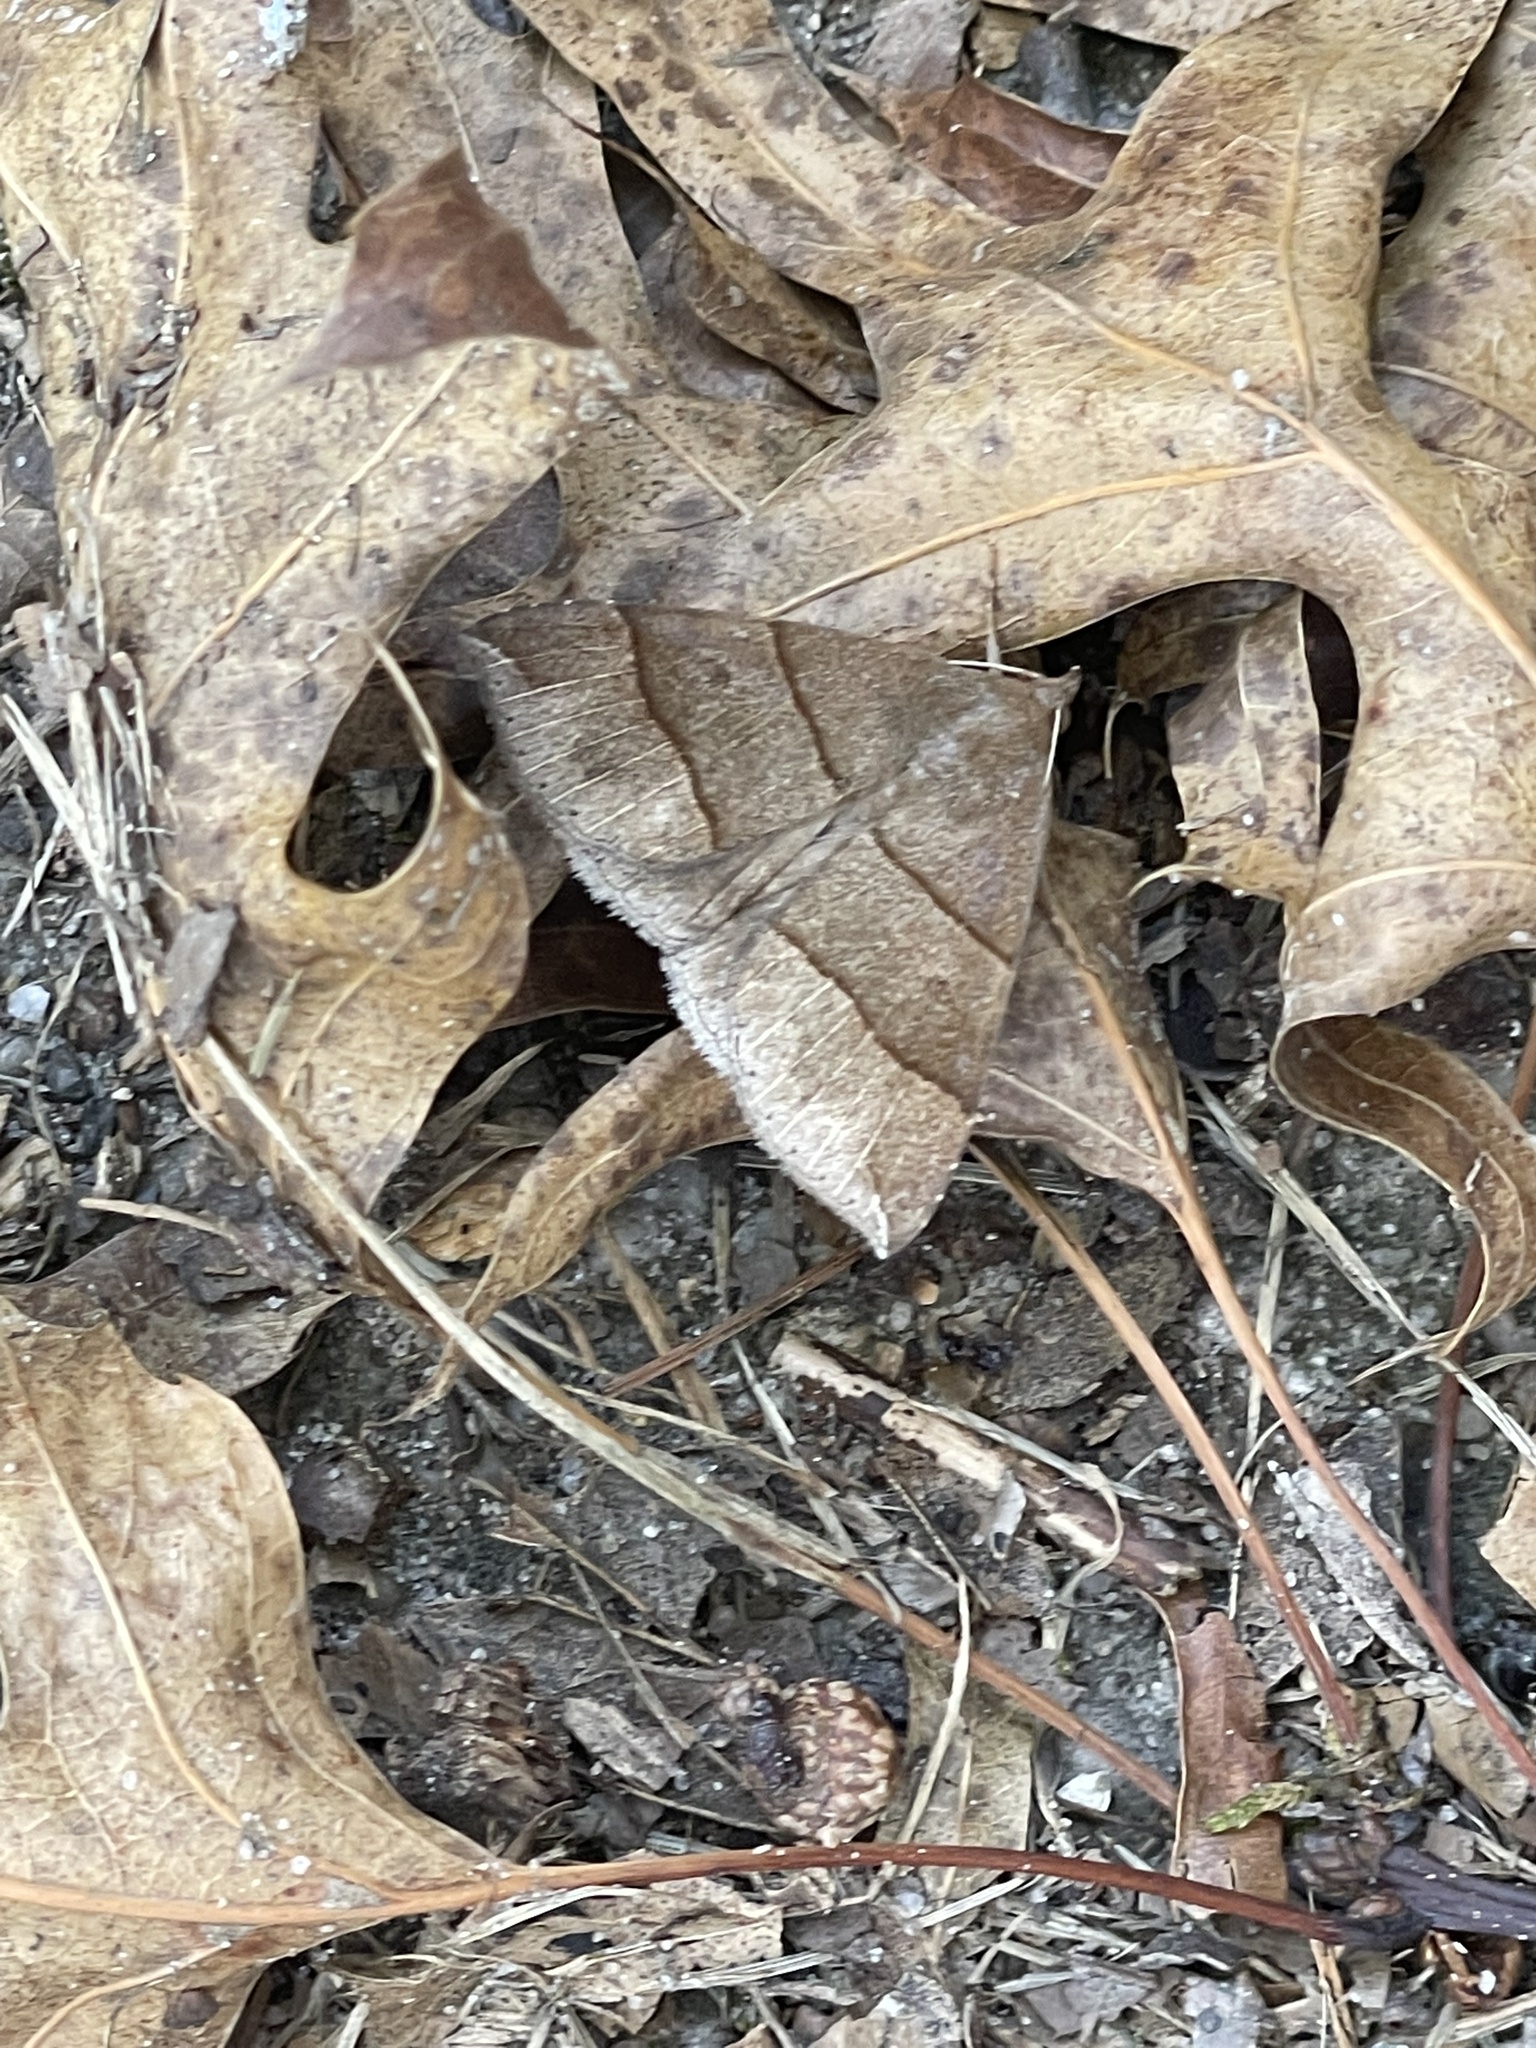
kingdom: Animalia
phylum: Arthropoda
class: Insecta
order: Lepidoptera
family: Erebidae
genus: Parallelia
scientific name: Parallelia bistriaris
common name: Maple looper moth
